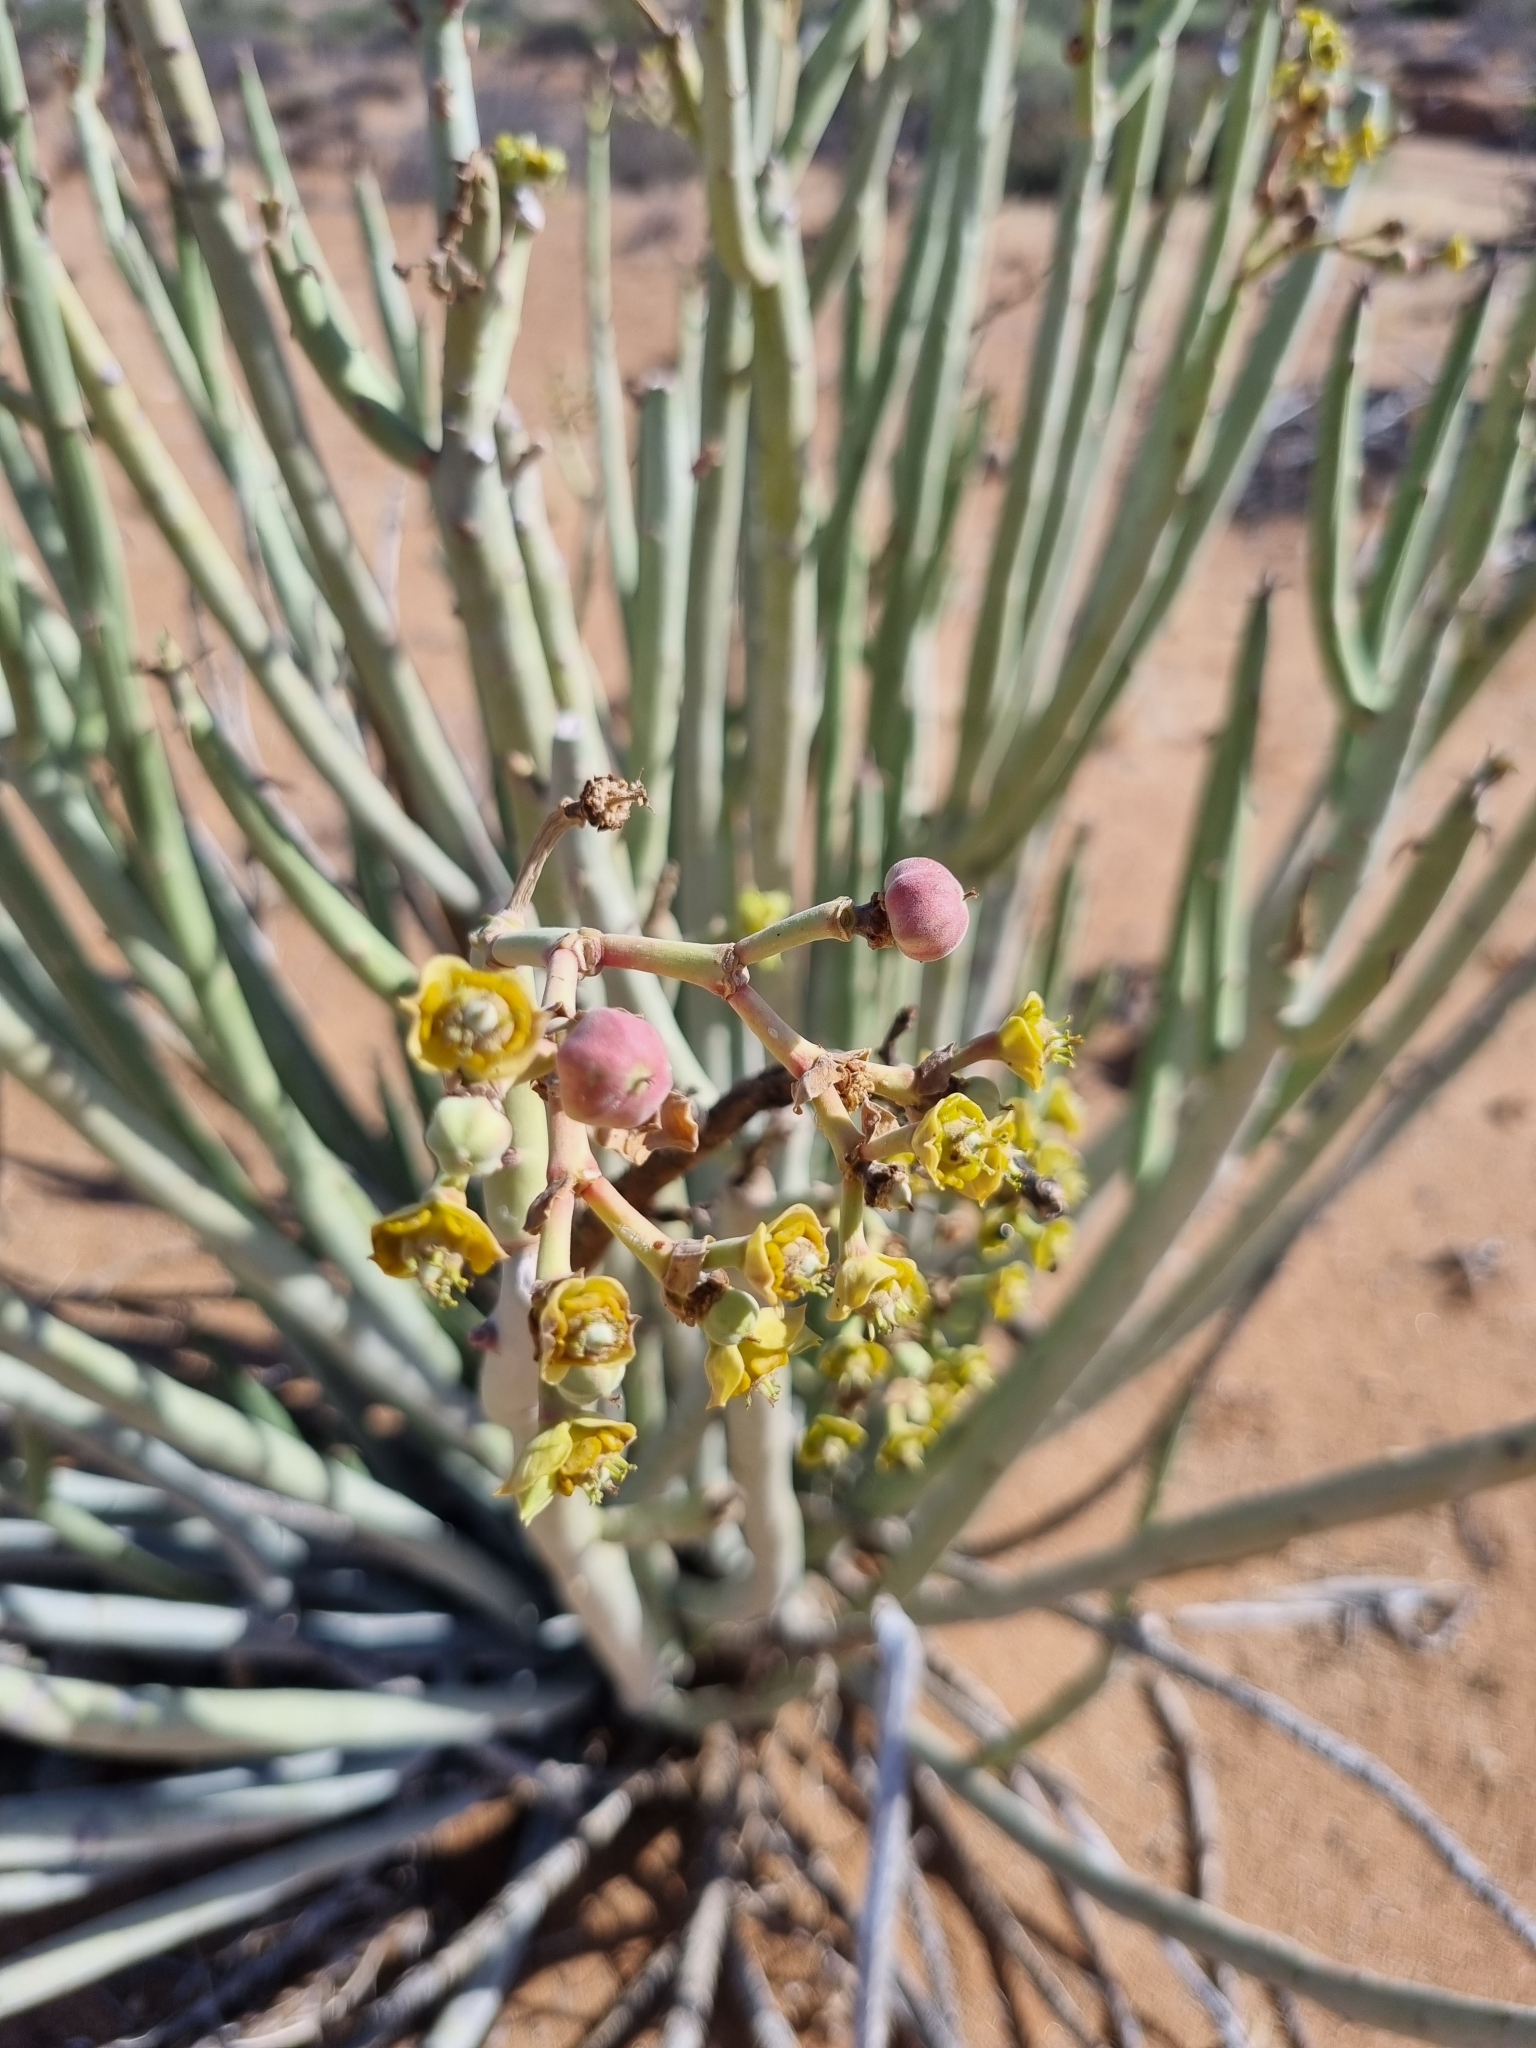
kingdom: Plantae
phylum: Tracheophyta
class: Magnoliopsida
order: Malpighiales
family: Euphorbiaceae
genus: Euphorbia
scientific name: Euphorbia dregeana
